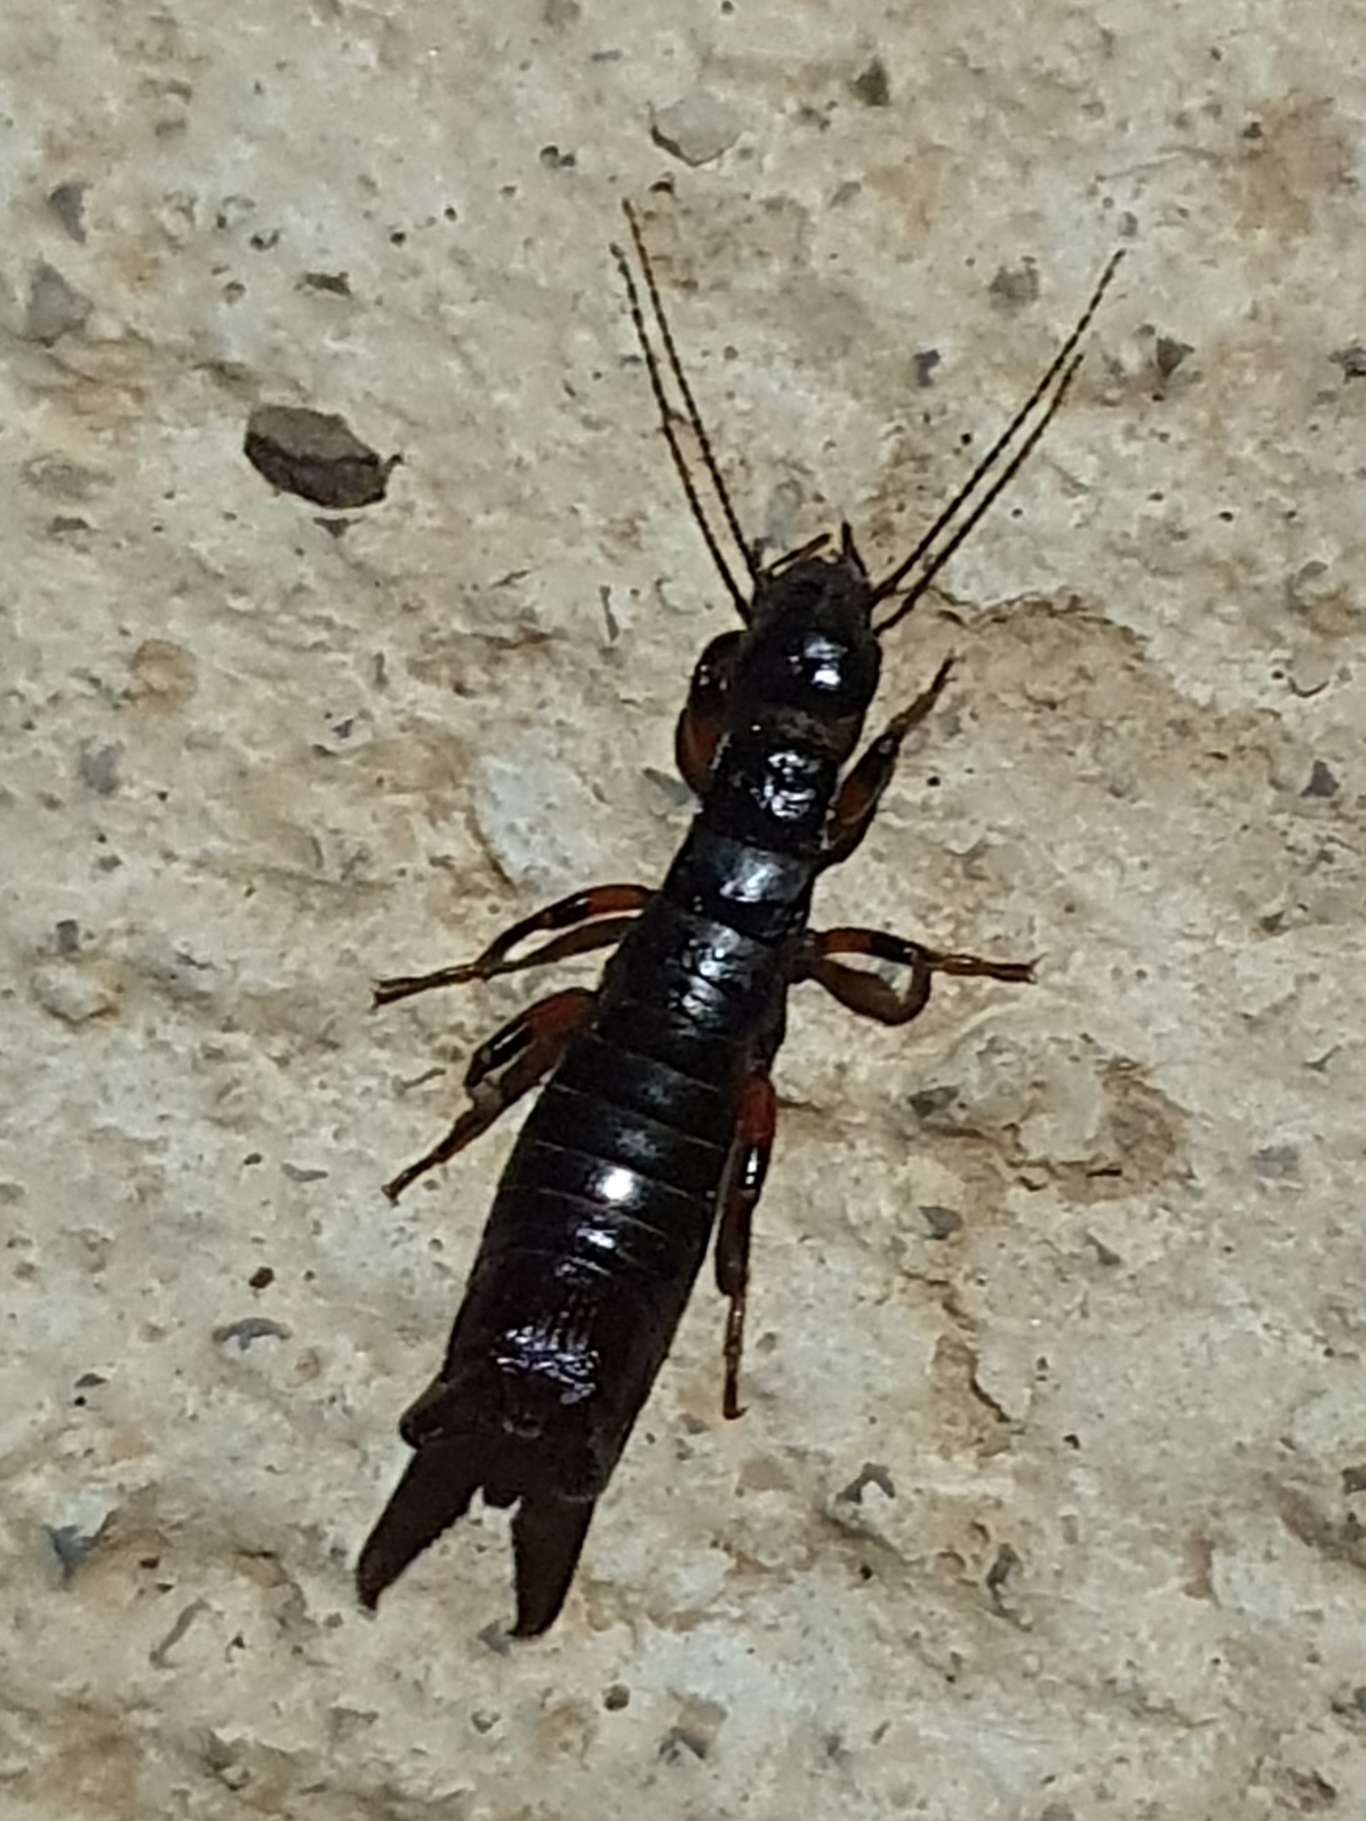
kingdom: Animalia
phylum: Arthropoda
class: Insecta
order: Dermaptera
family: Anisolabididae
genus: Aborolabis
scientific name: Aborolabis mauritanica
